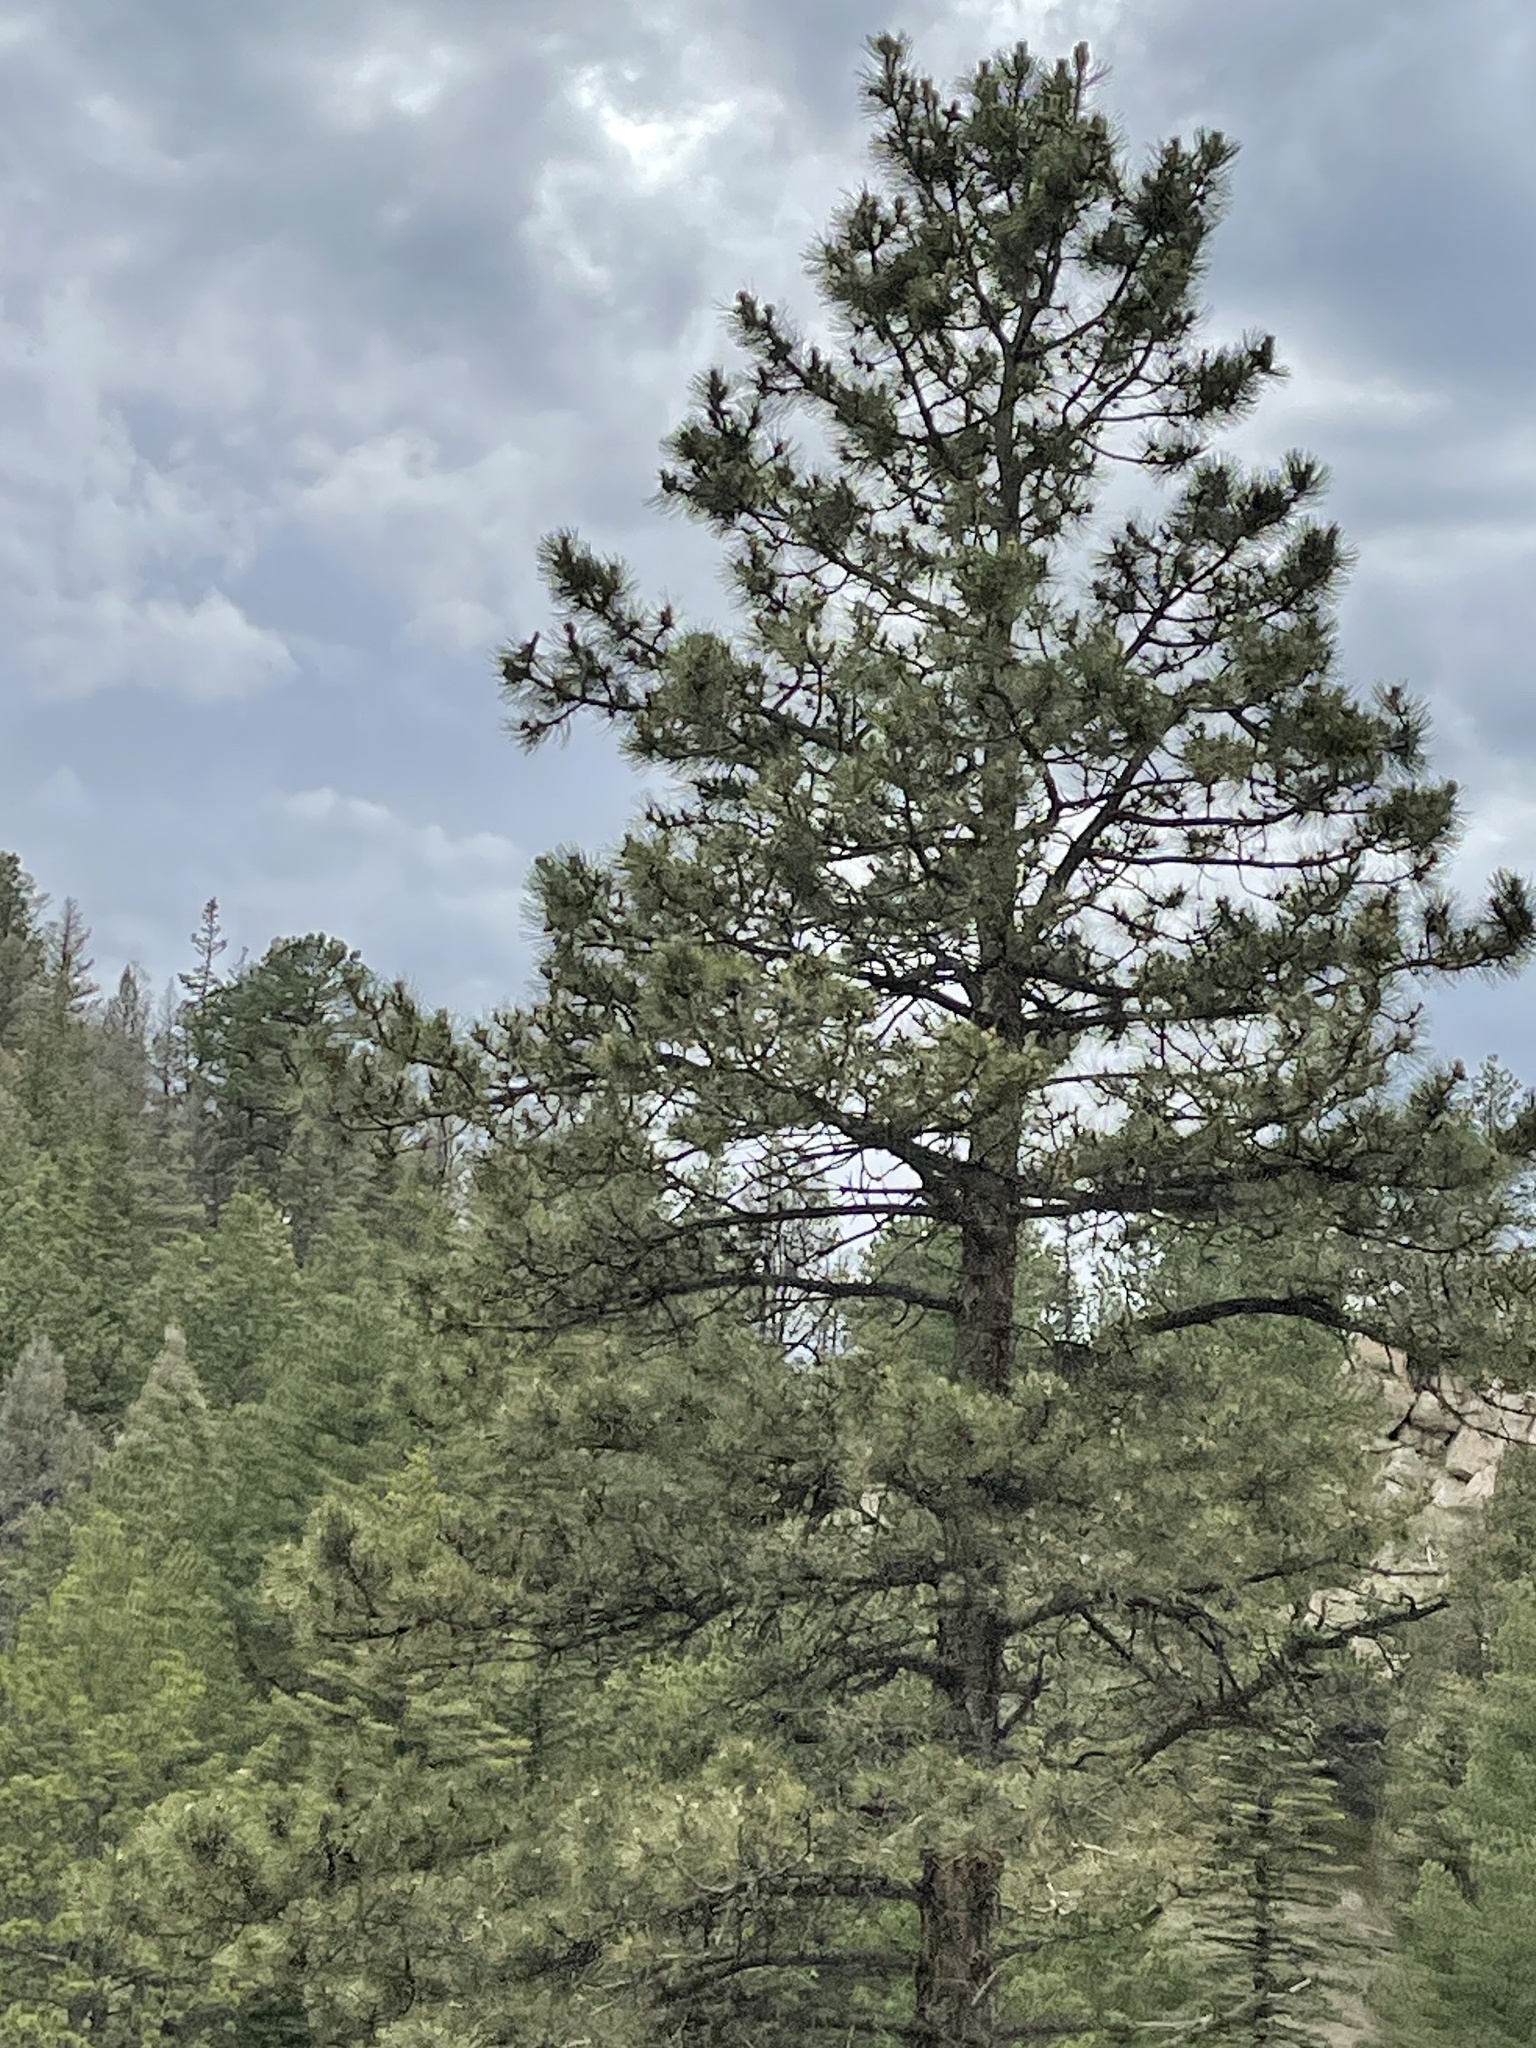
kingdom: Plantae
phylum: Tracheophyta
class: Pinopsida
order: Pinales
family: Pinaceae
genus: Pinus
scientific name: Pinus ponderosa
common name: Western yellow-pine
